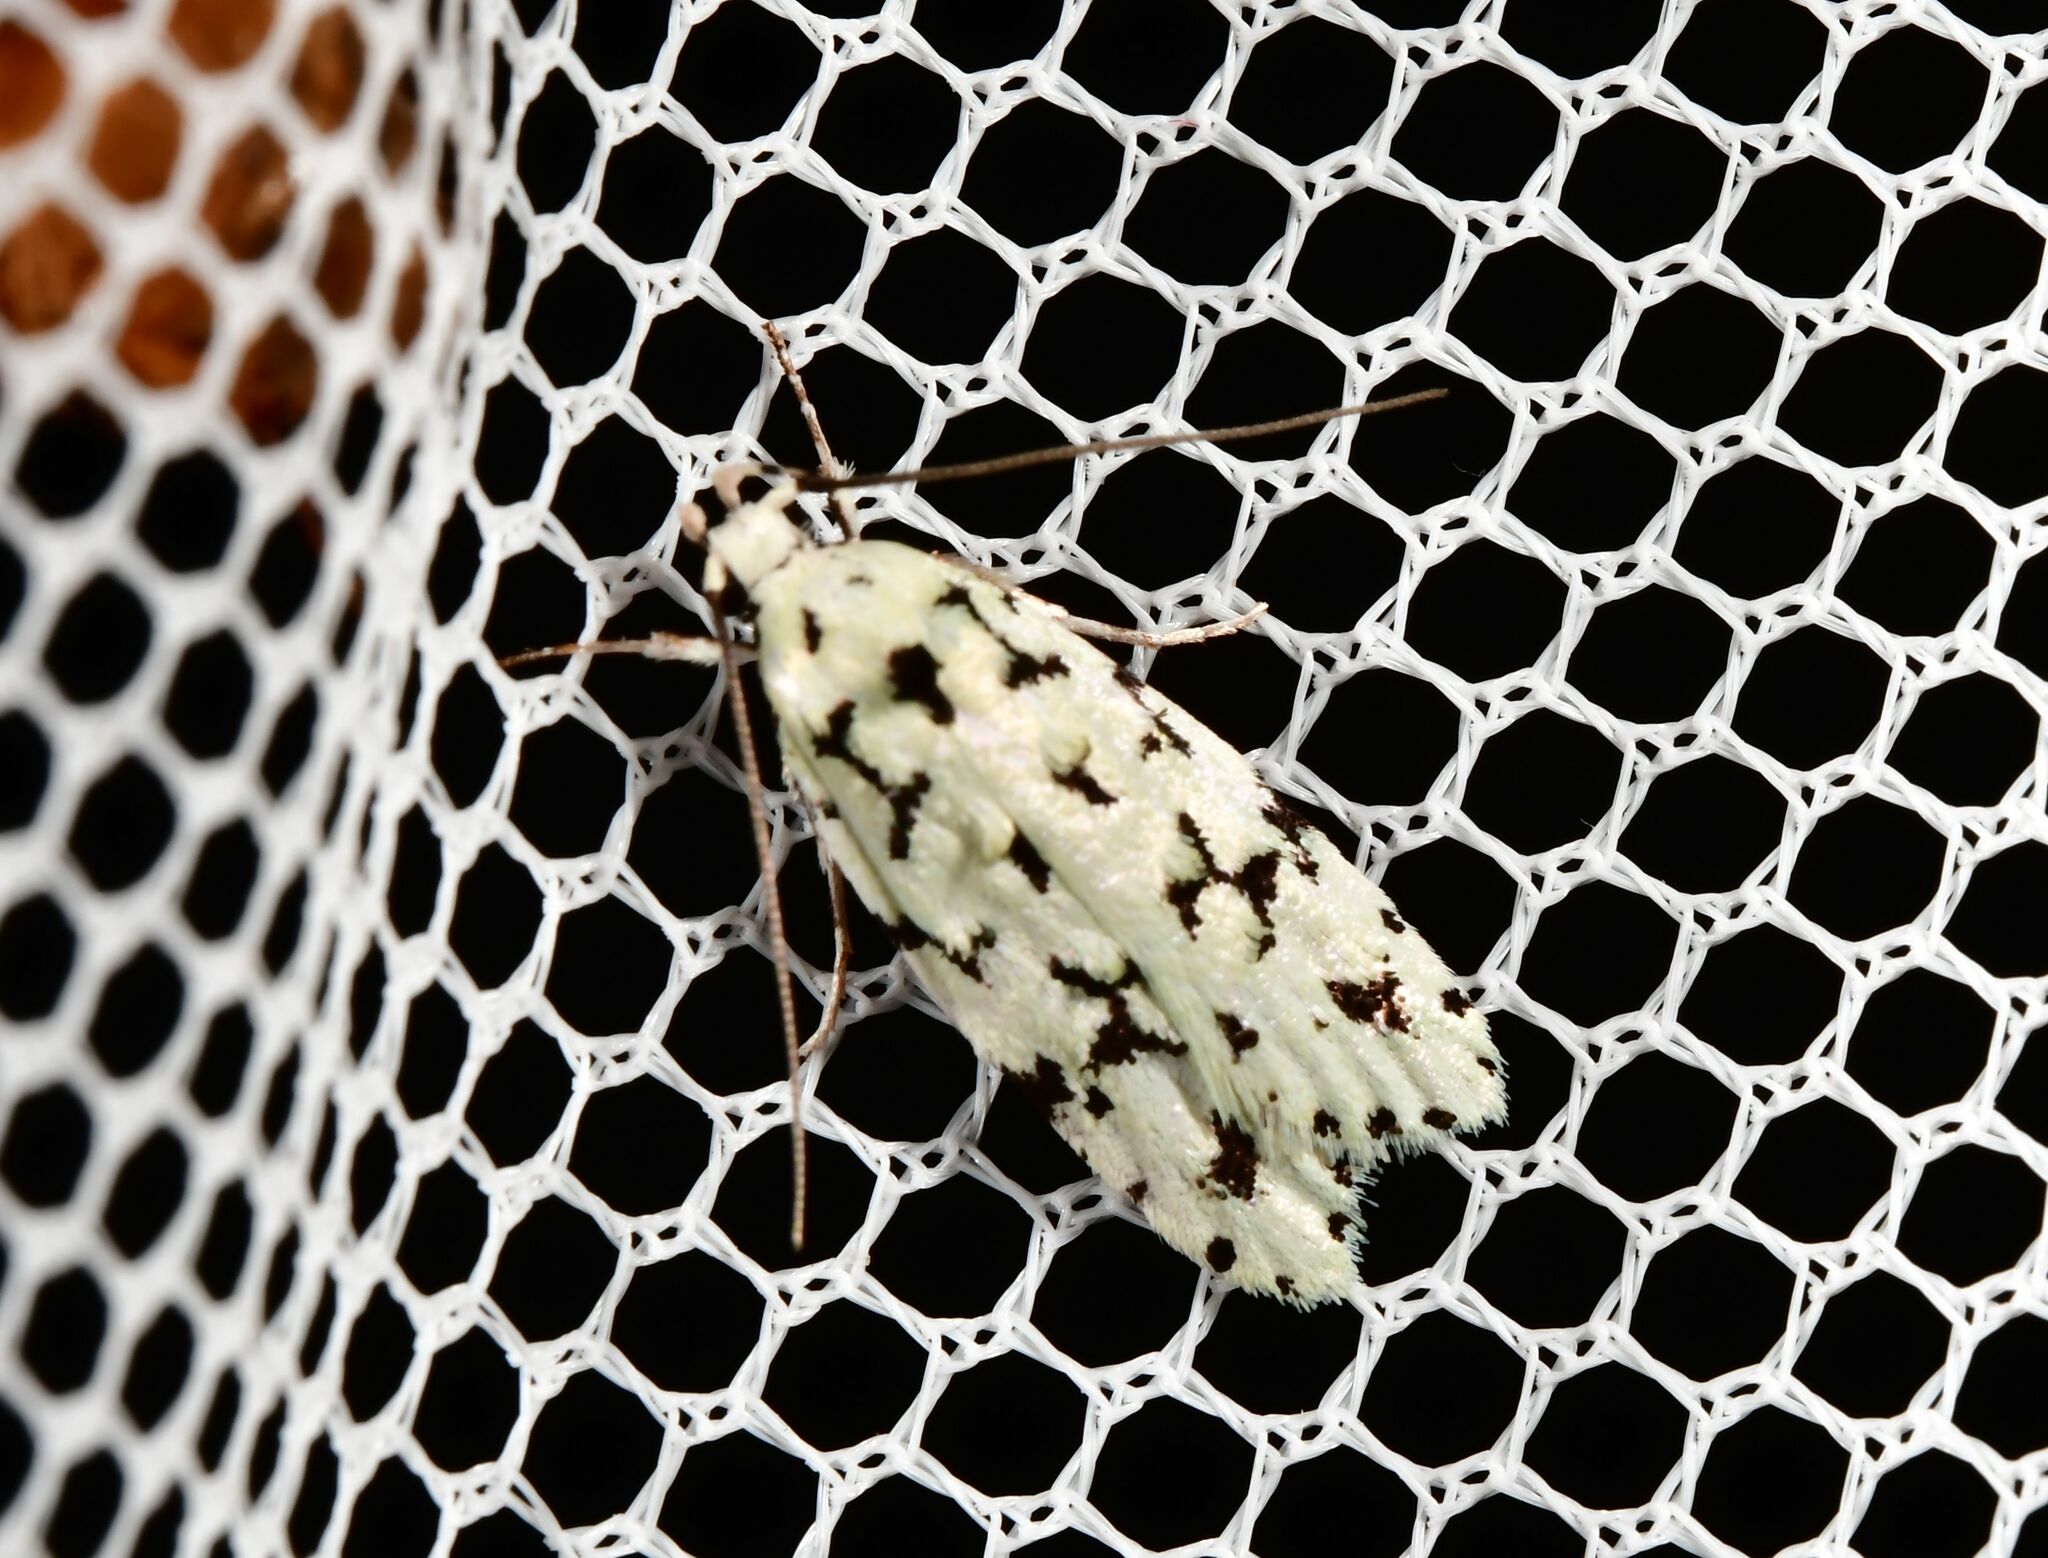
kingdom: Animalia
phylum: Arthropoda
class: Insecta
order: Lepidoptera
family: Oecophoridae
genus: Izatha
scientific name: Izatha huttoni
